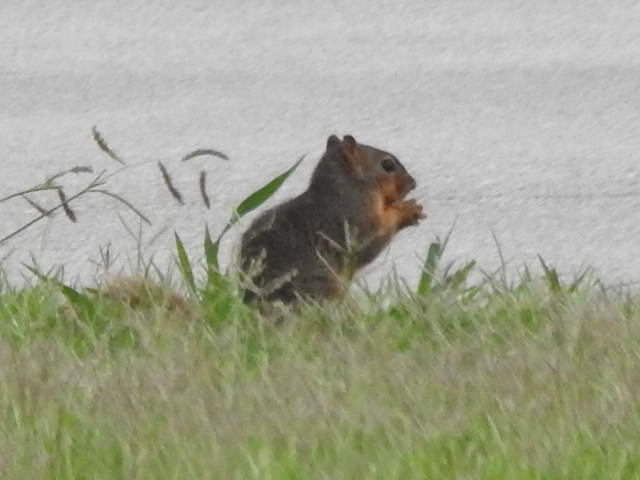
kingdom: Animalia
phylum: Chordata
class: Mammalia
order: Rodentia
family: Sciuridae
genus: Sciurus
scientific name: Sciurus niger
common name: Fox squirrel
